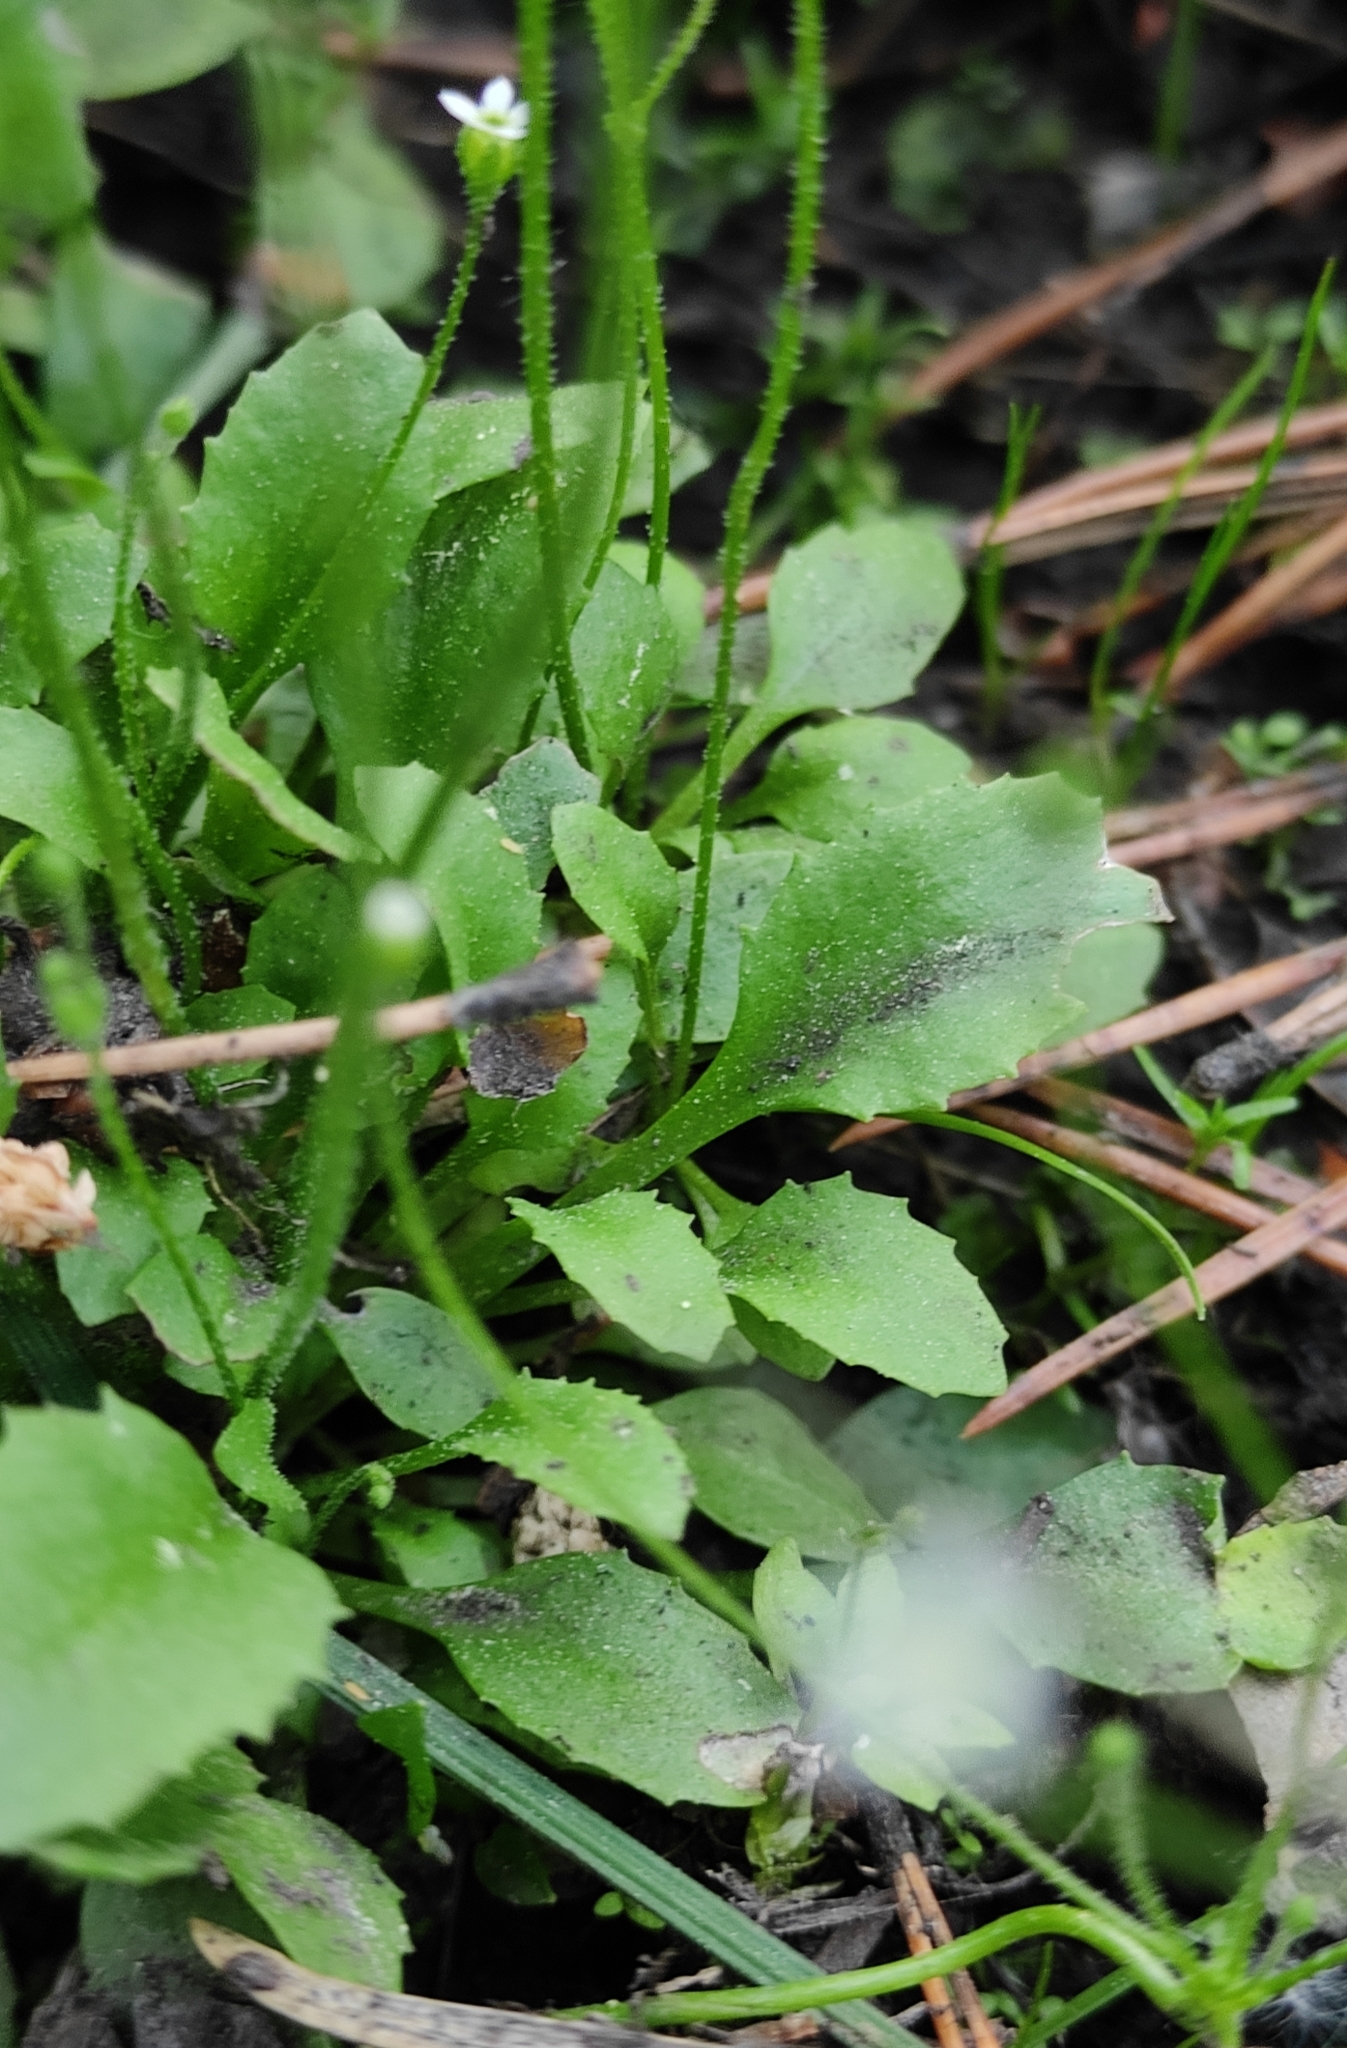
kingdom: Plantae
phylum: Tracheophyta
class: Magnoliopsida
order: Ericales
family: Primulaceae
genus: Androsace
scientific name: Androsace filiformis
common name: Filiform rock jasmine
